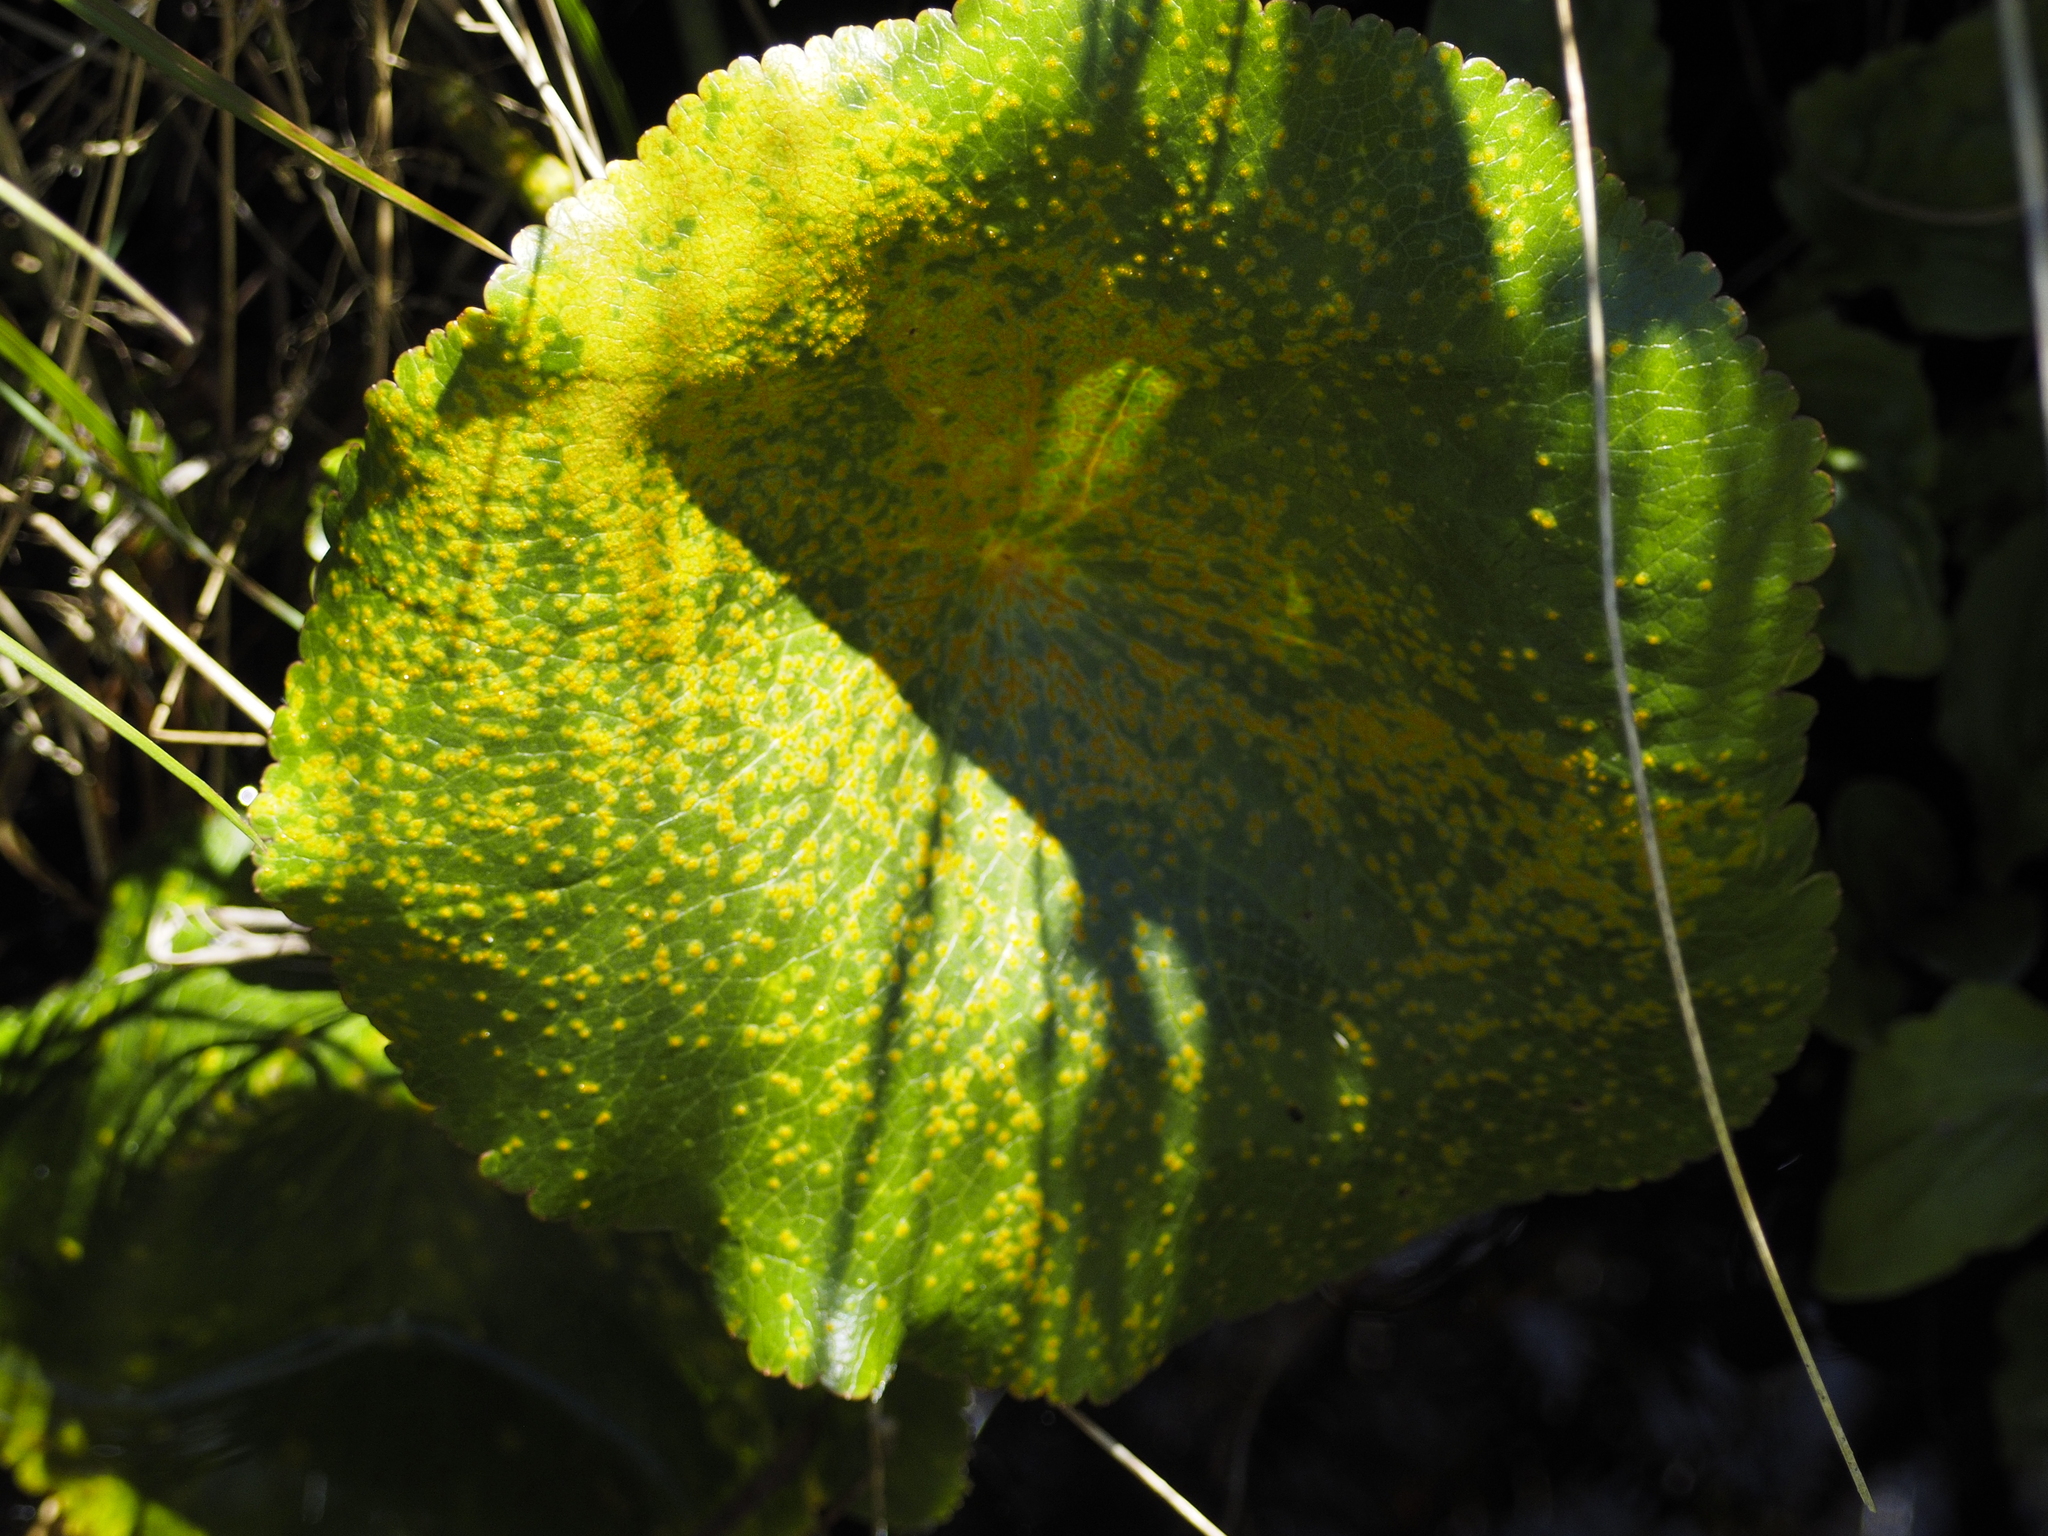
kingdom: Fungi
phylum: Basidiomycota
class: Pucciniomycetes
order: Pucciniales
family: Pucciniaceae
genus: Aecidium
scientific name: Aecidium ranunculi-lyallii
